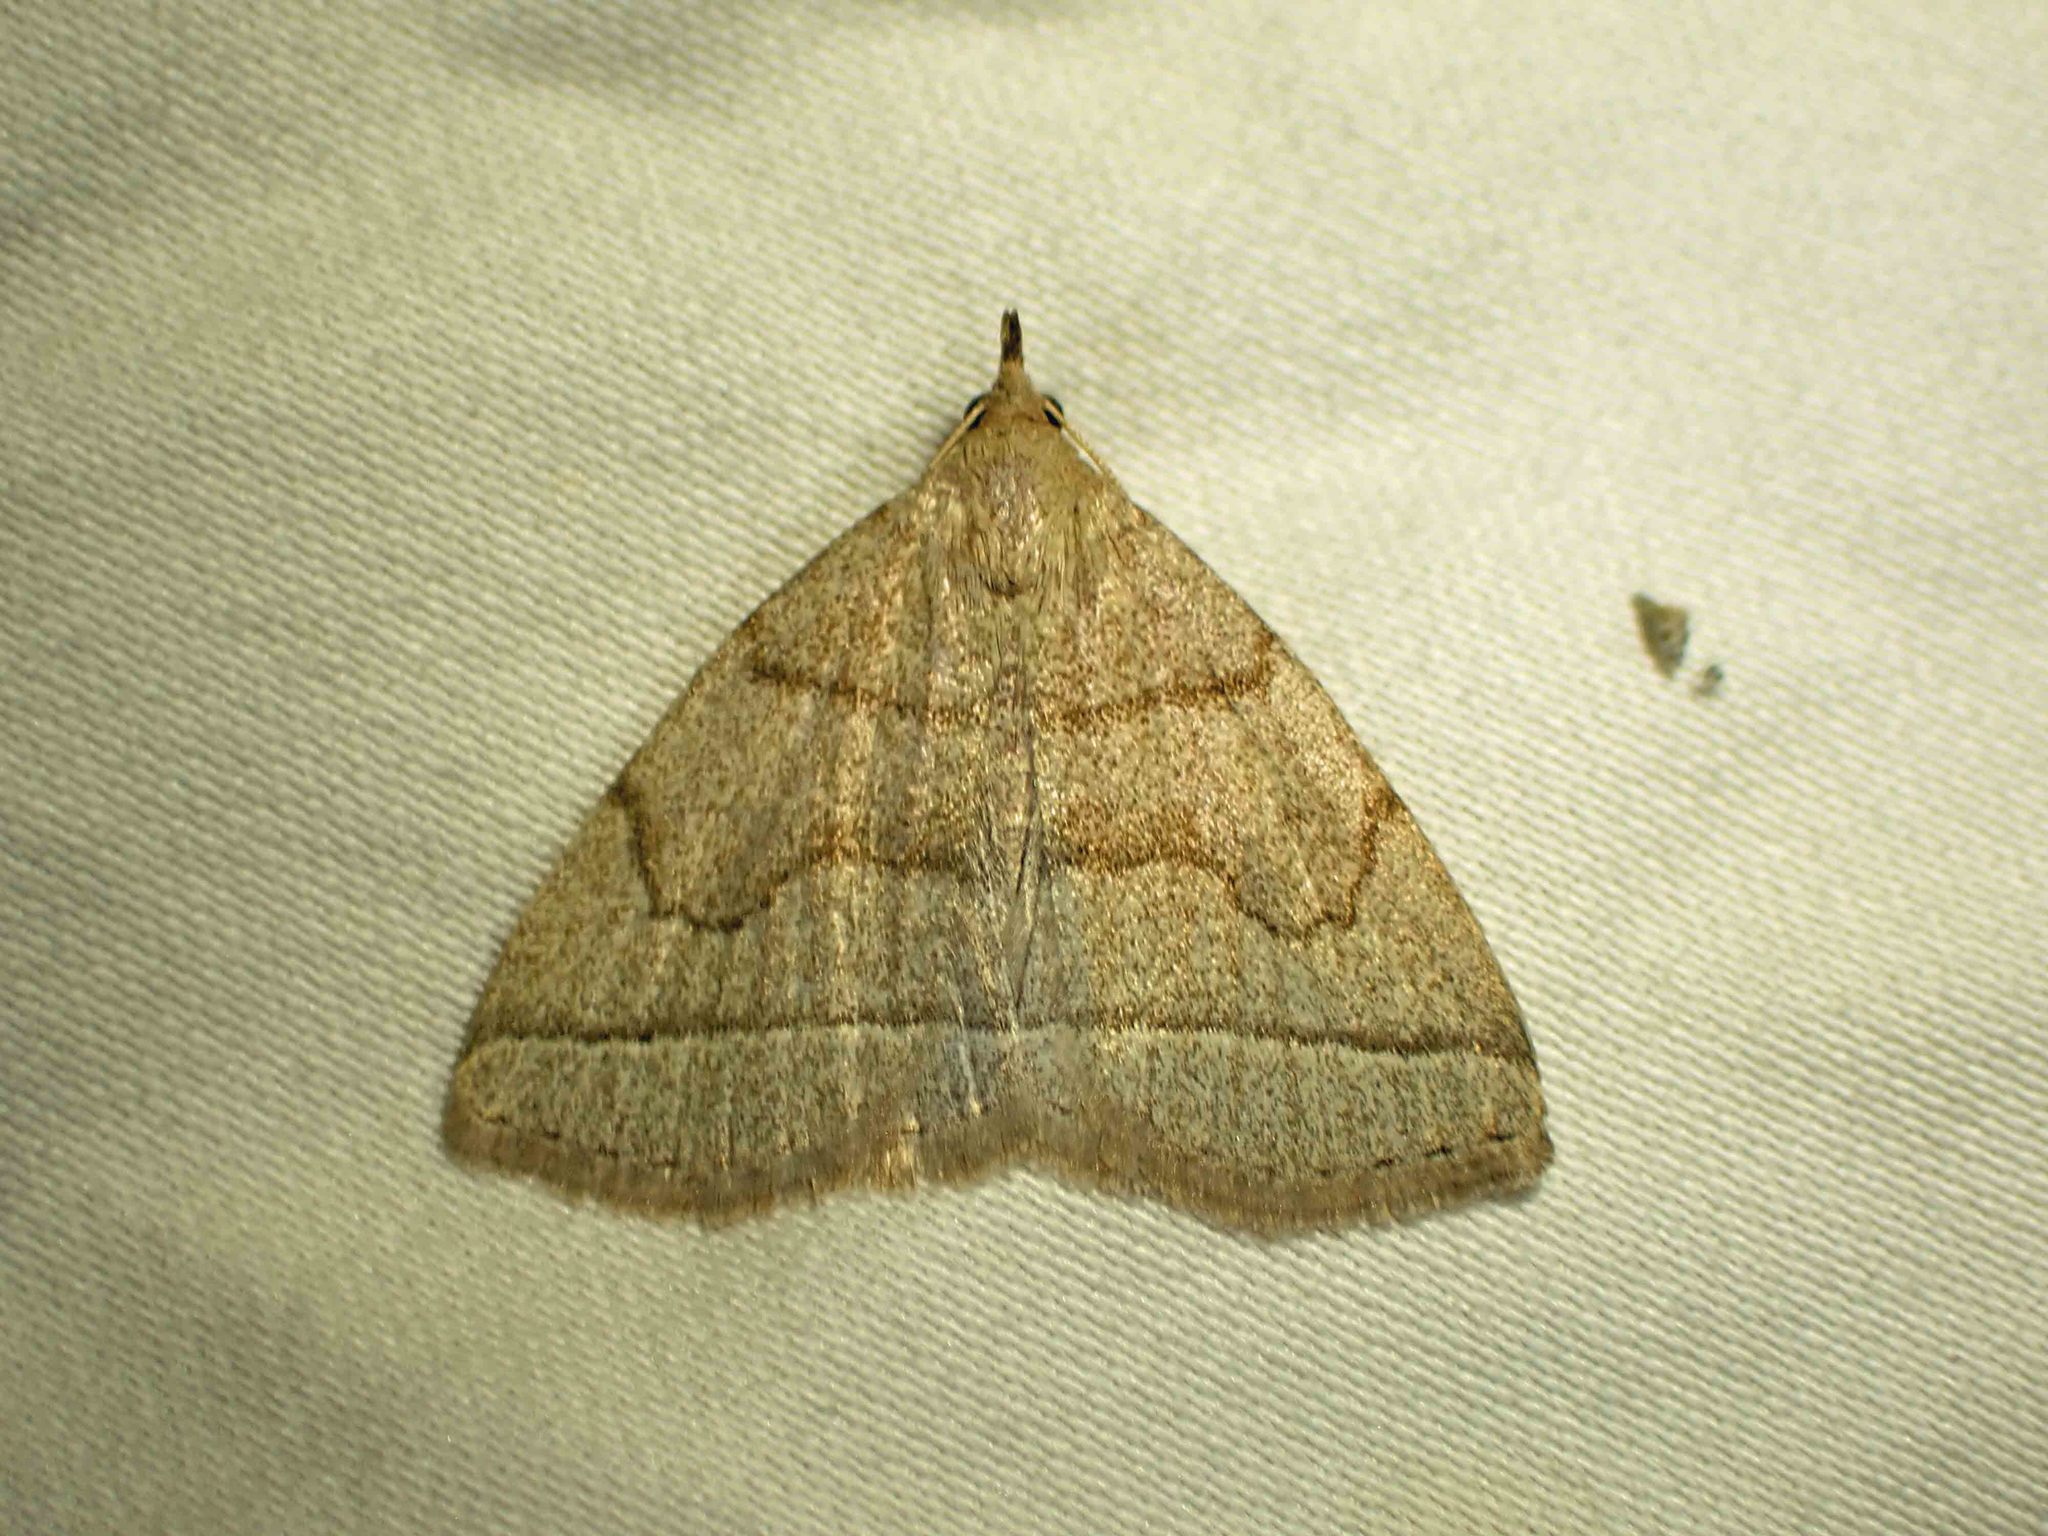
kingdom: Animalia
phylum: Arthropoda
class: Insecta
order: Lepidoptera
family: Erebidae
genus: Zanclognatha
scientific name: Zanclognatha cruralis
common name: Early fan-foot
